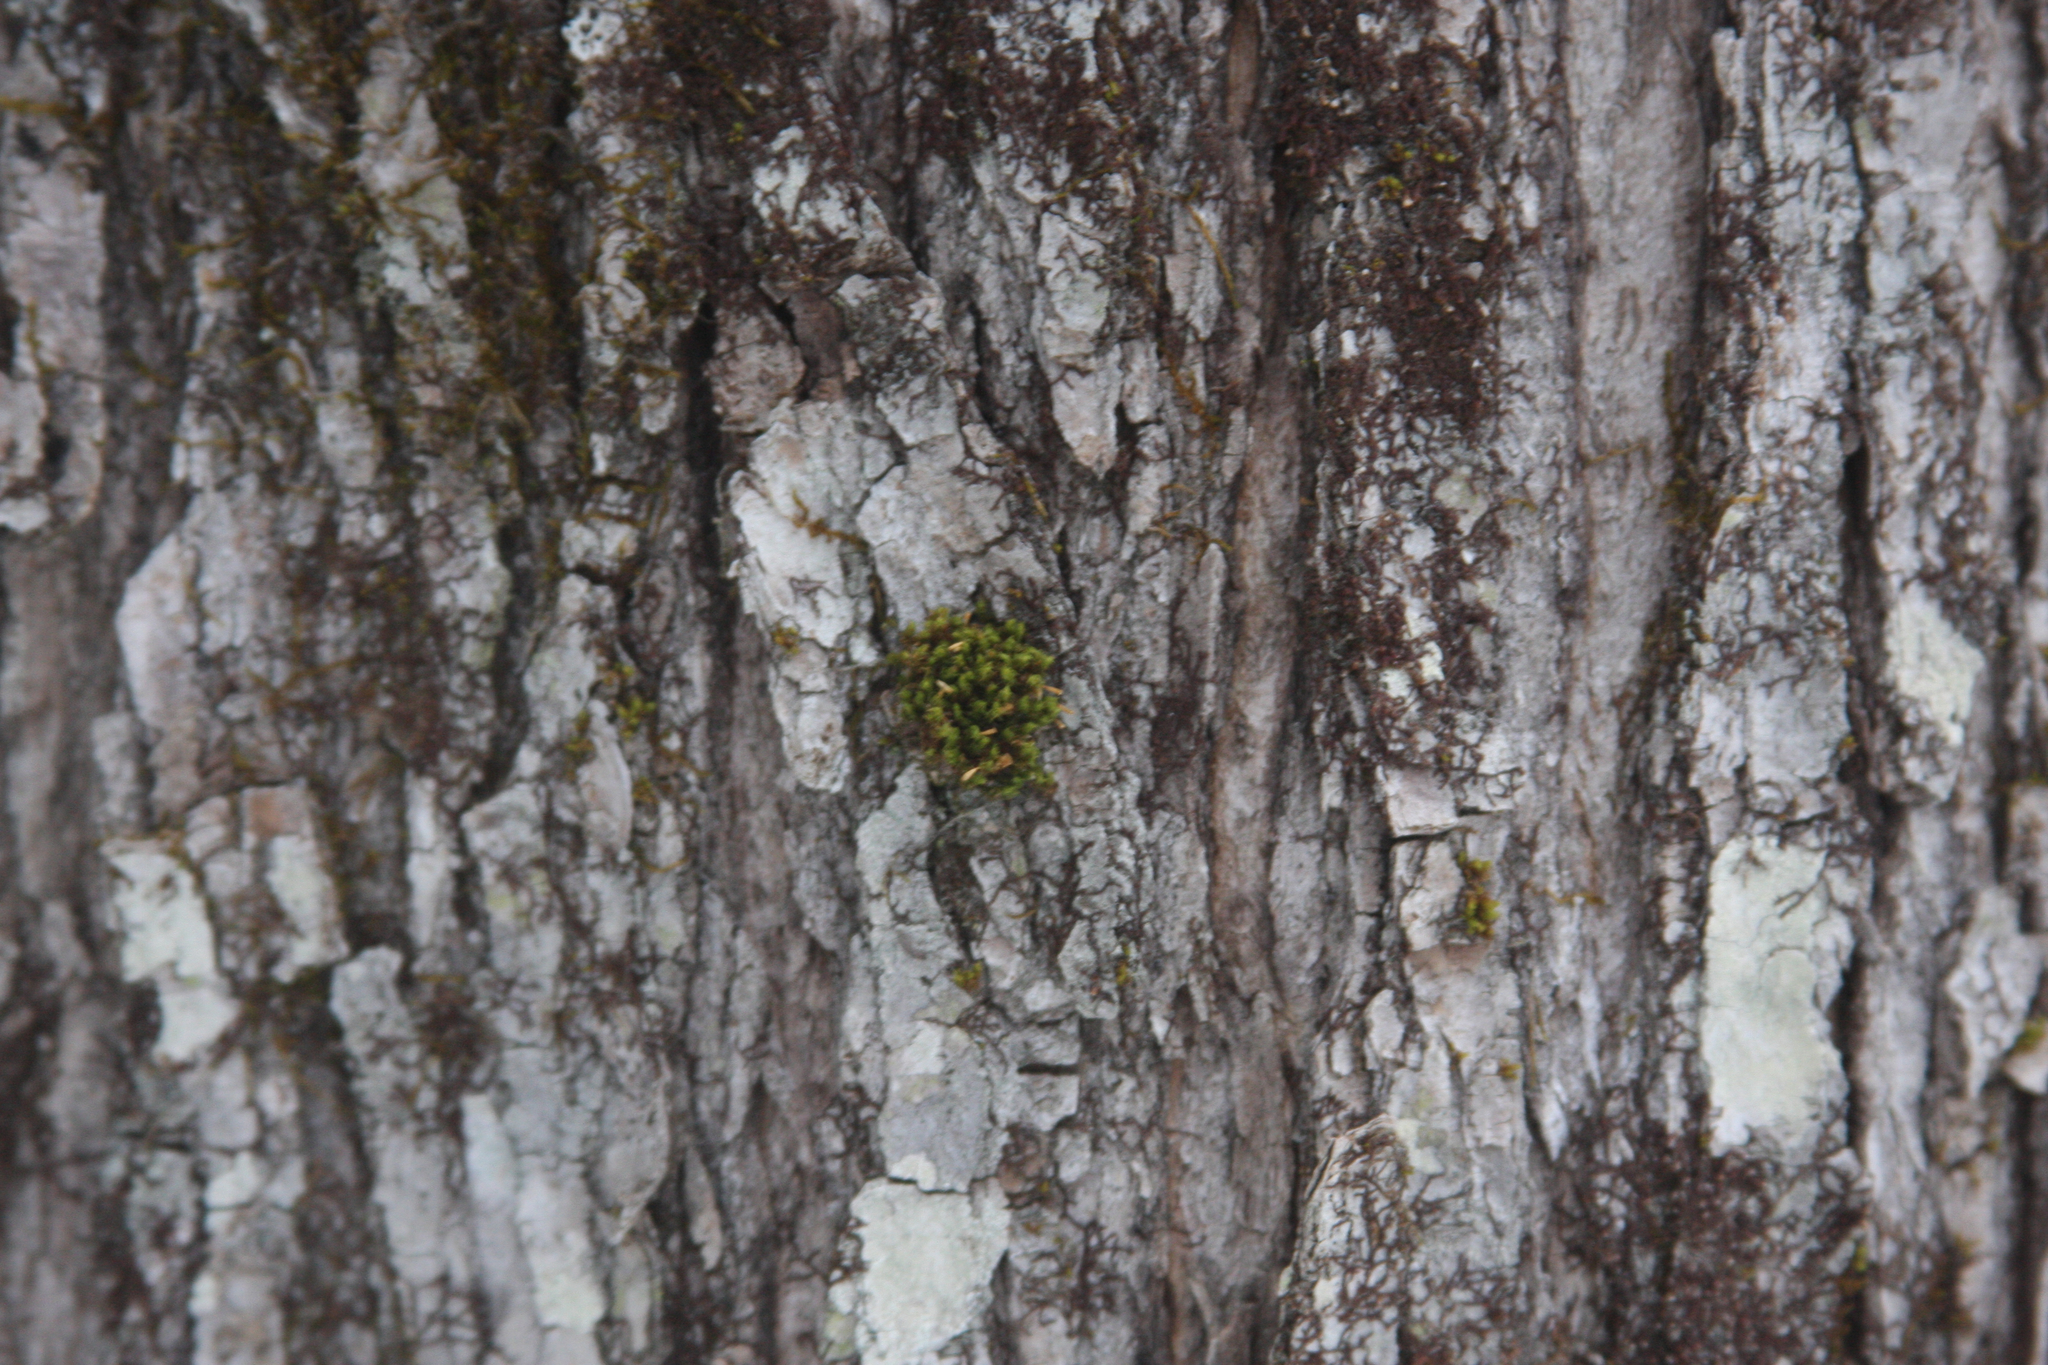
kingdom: Plantae
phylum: Bryophyta
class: Bryopsida
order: Orthotrichales
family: Orthotrichaceae
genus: Ulota
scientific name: Ulota crispa
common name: Crisped pincushion moss
